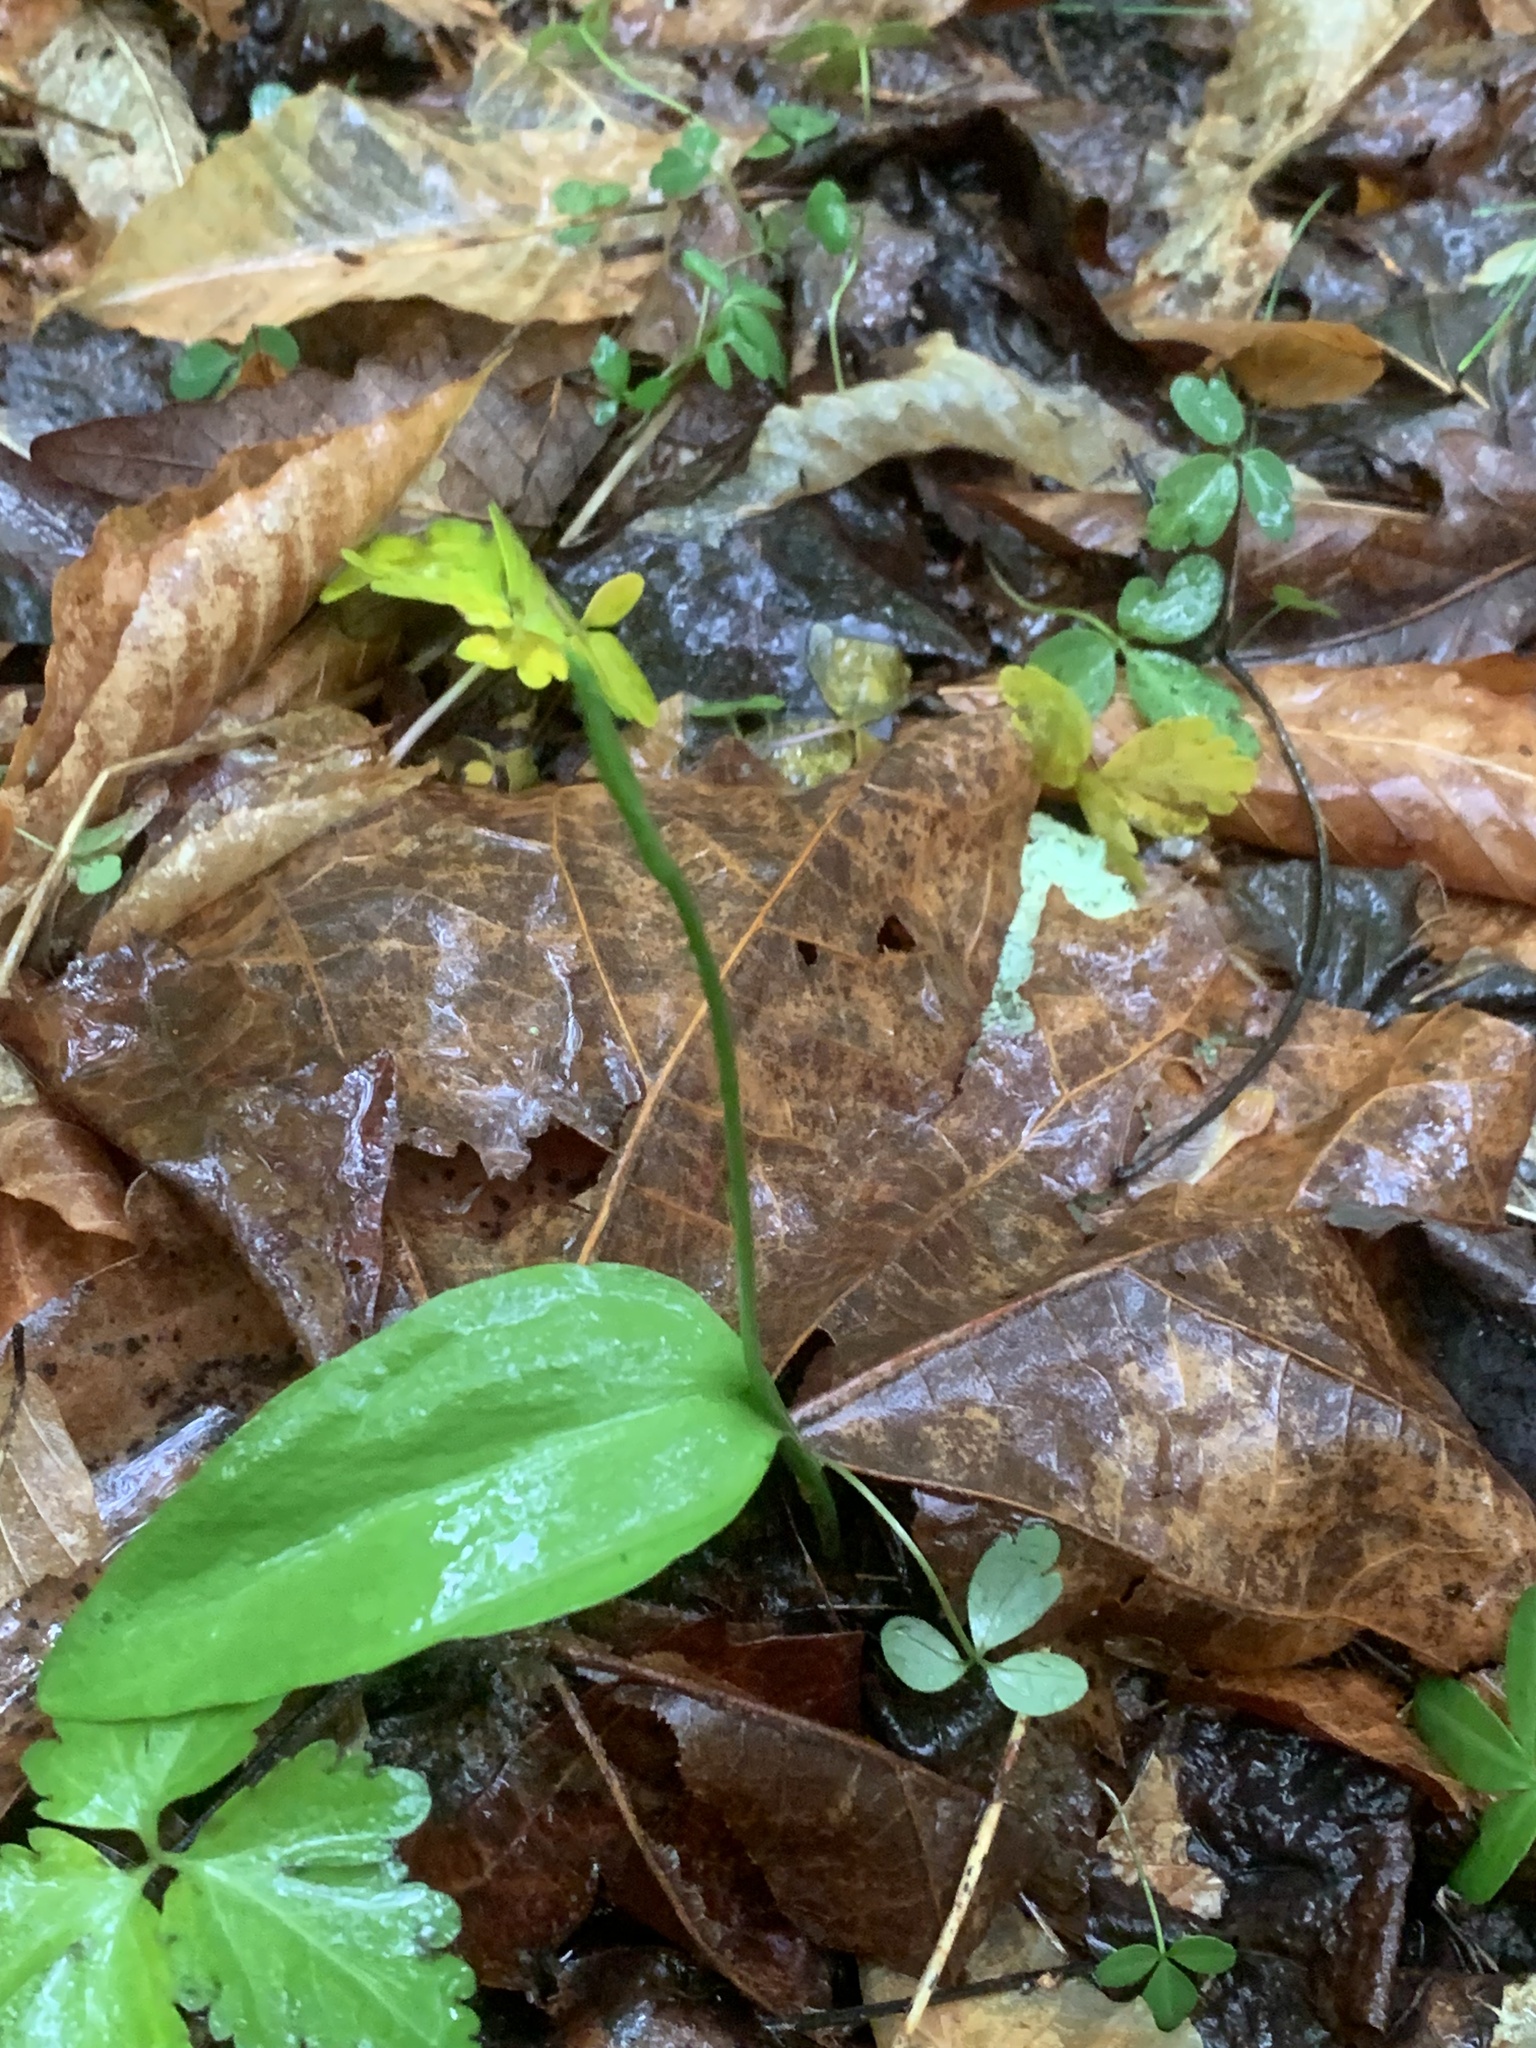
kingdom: Plantae
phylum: Tracheophyta
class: Polypodiopsida
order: Ophioglossales
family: Ophioglossaceae
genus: Ophioglossum
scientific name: Ophioglossum vulgatum
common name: Adder's-tongue
